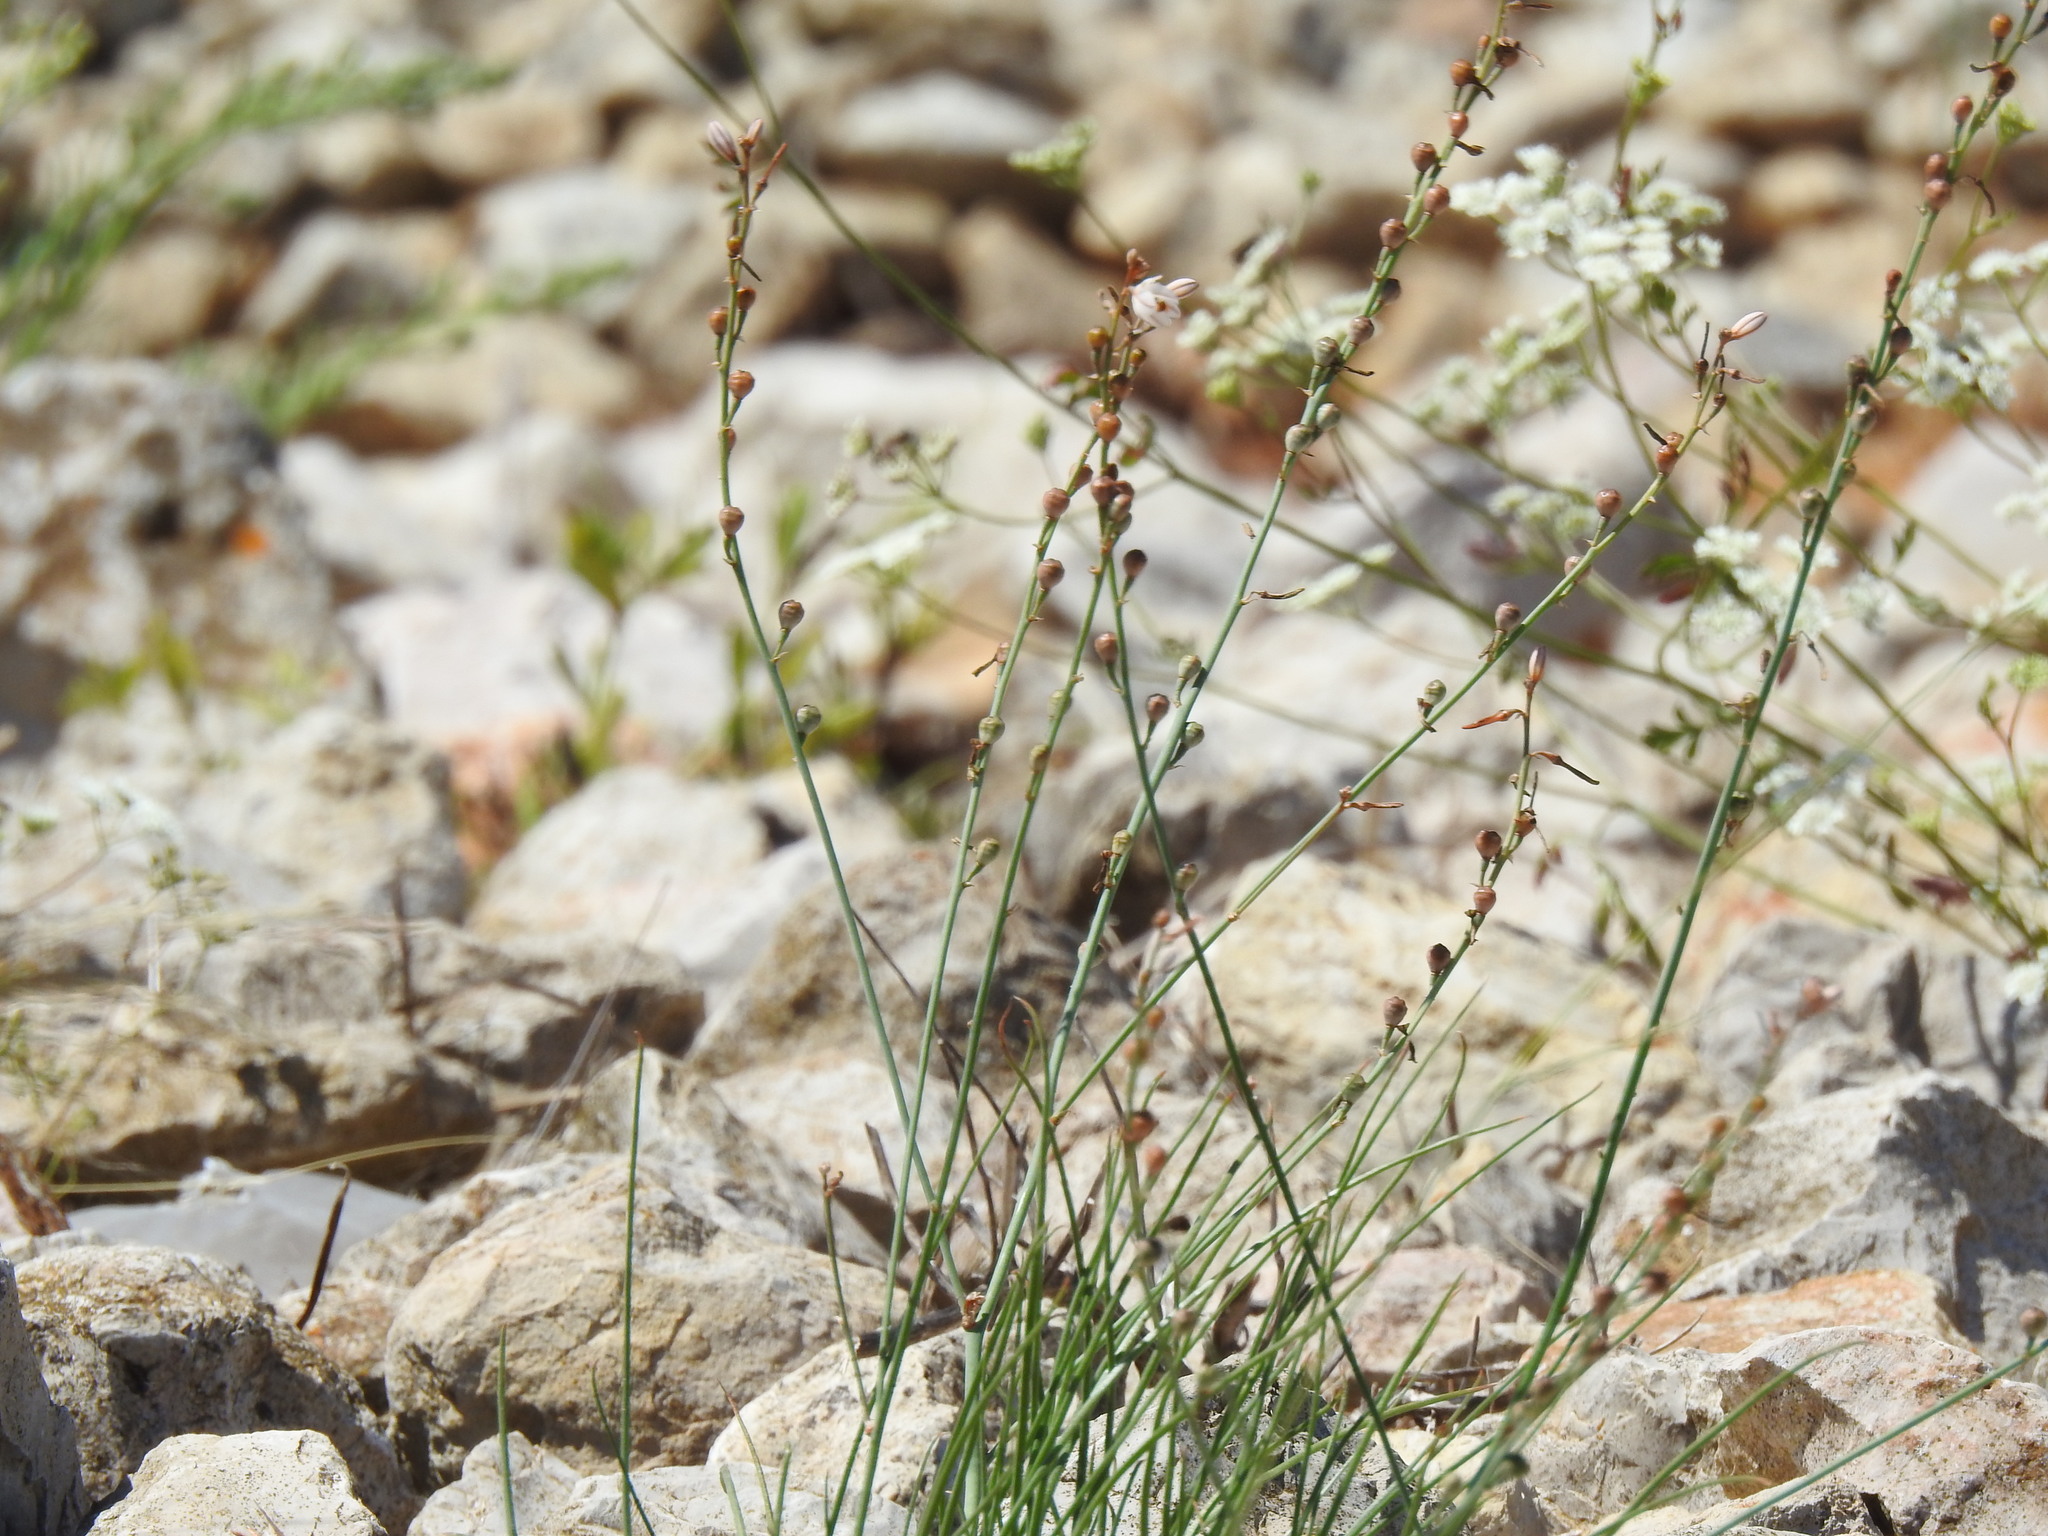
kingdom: Plantae
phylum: Tracheophyta
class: Liliopsida
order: Asparagales
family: Asphodelaceae
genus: Asphodelus
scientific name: Asphodelus fistulosus
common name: Onionweed
